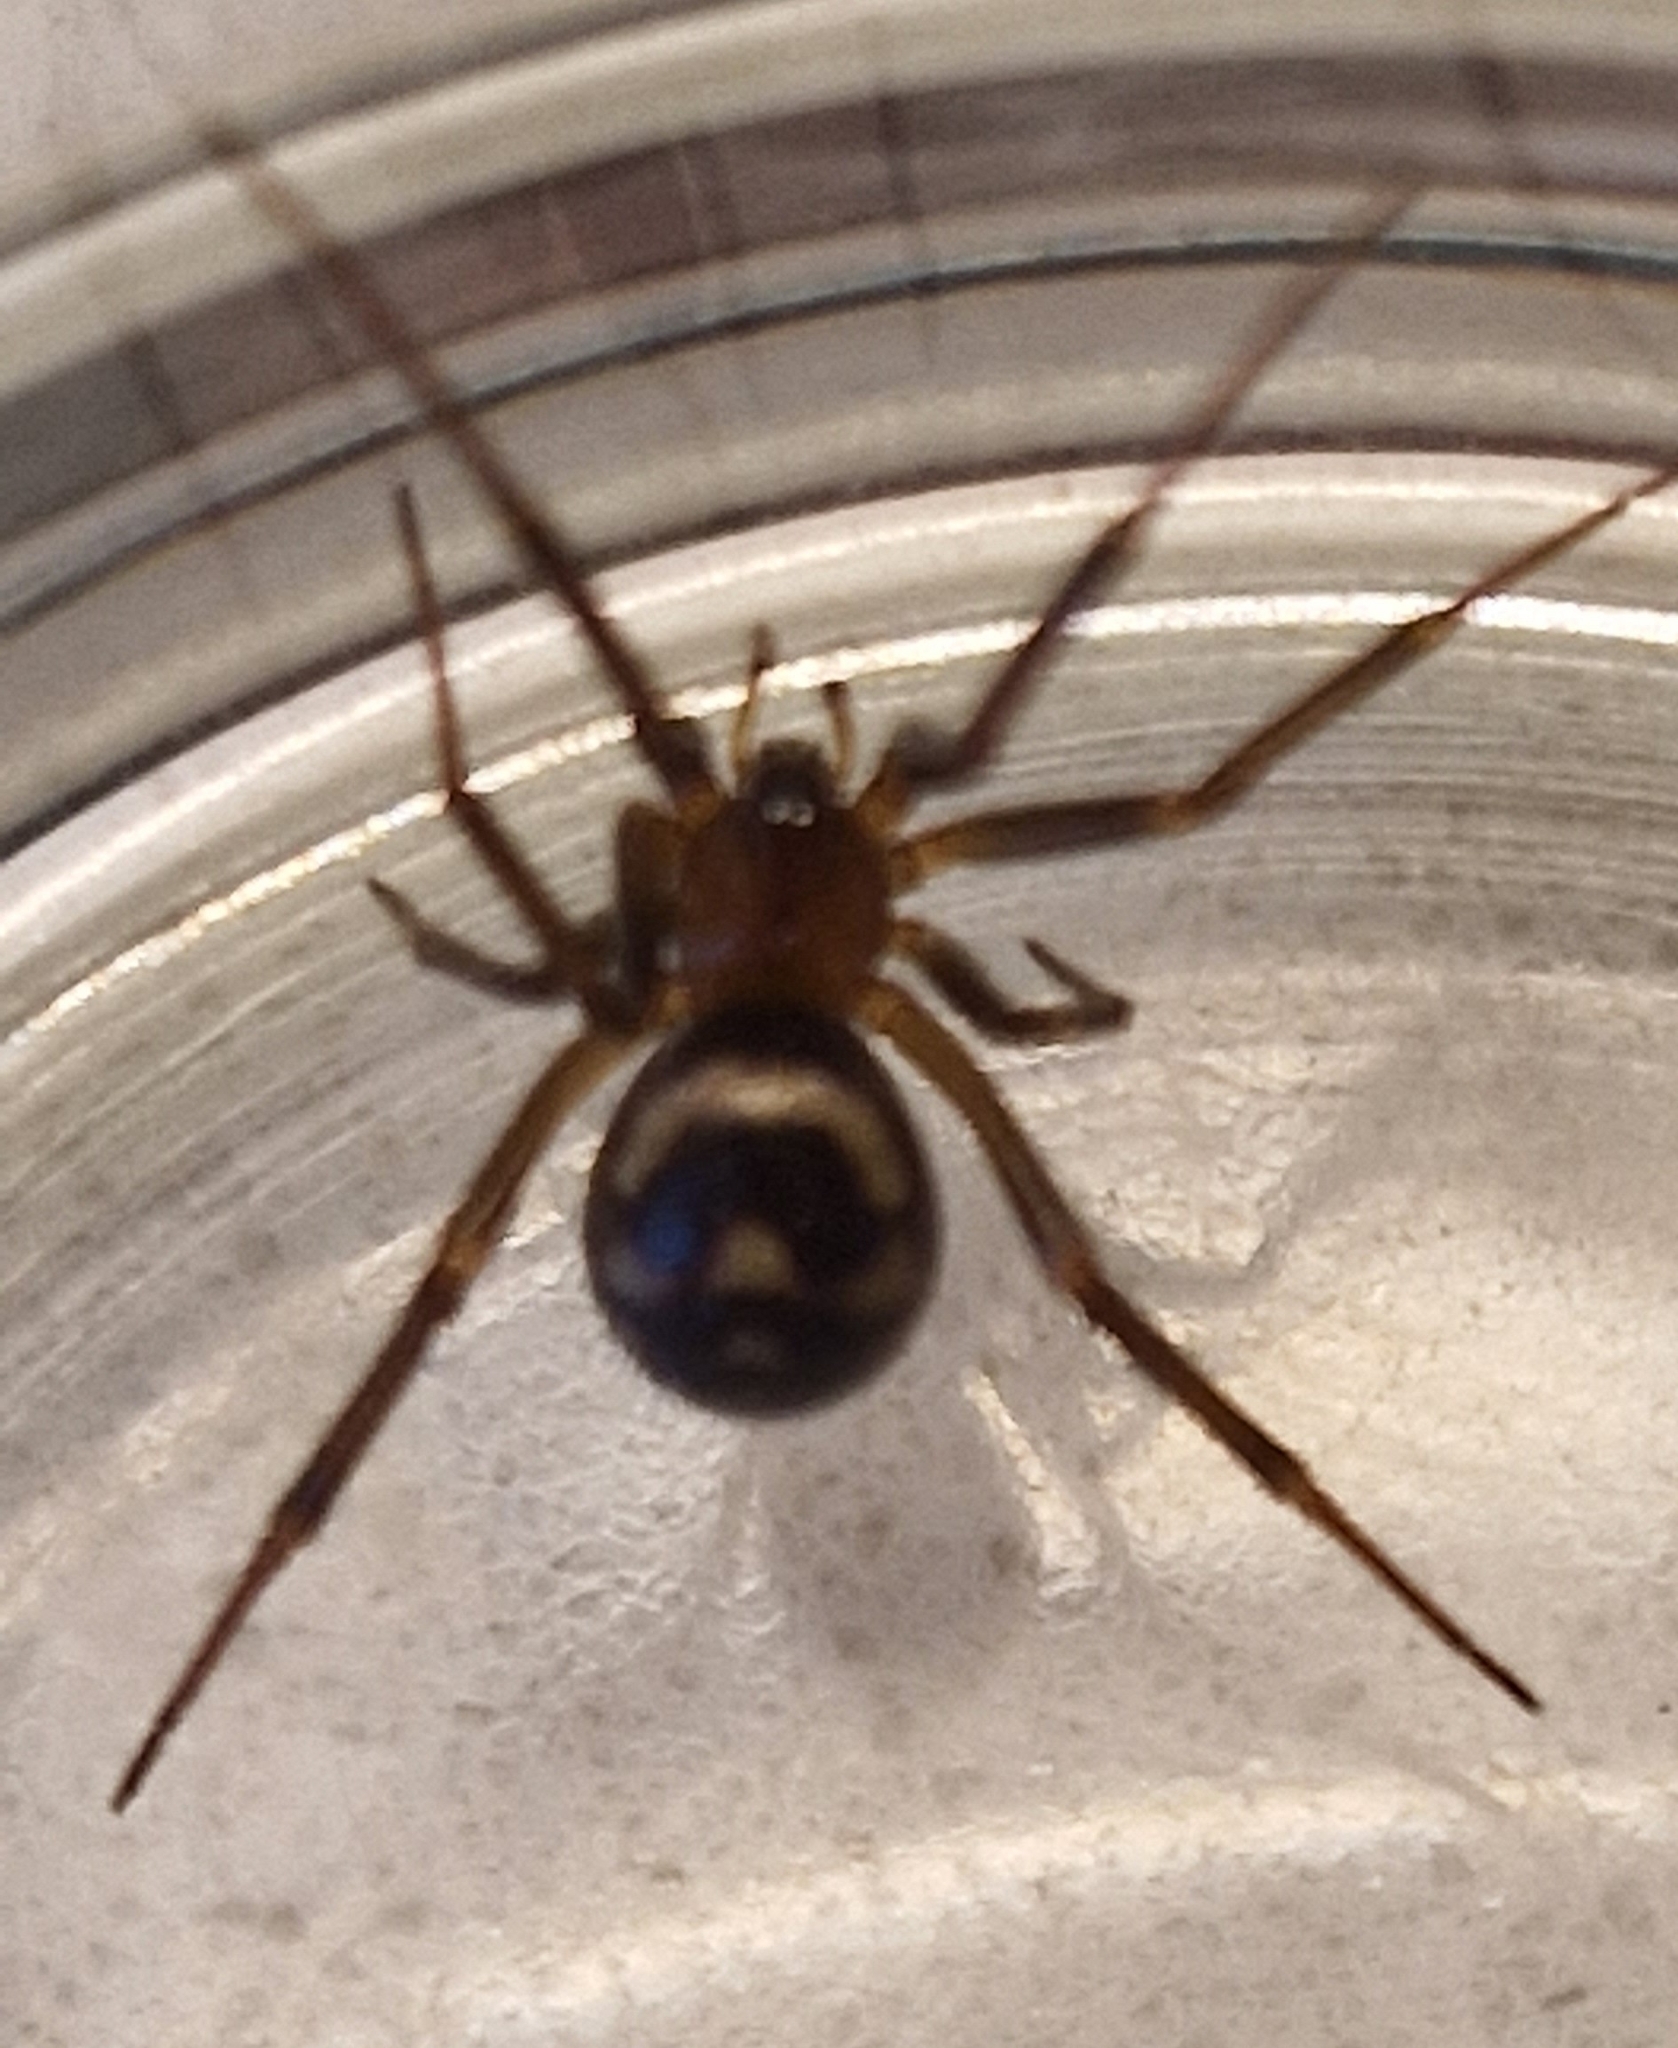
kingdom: Animalia
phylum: Arthropoda
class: Arachnida
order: Araneae
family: Theridiidae
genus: Steatoda
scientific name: Steatoda grossa
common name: False black widow
